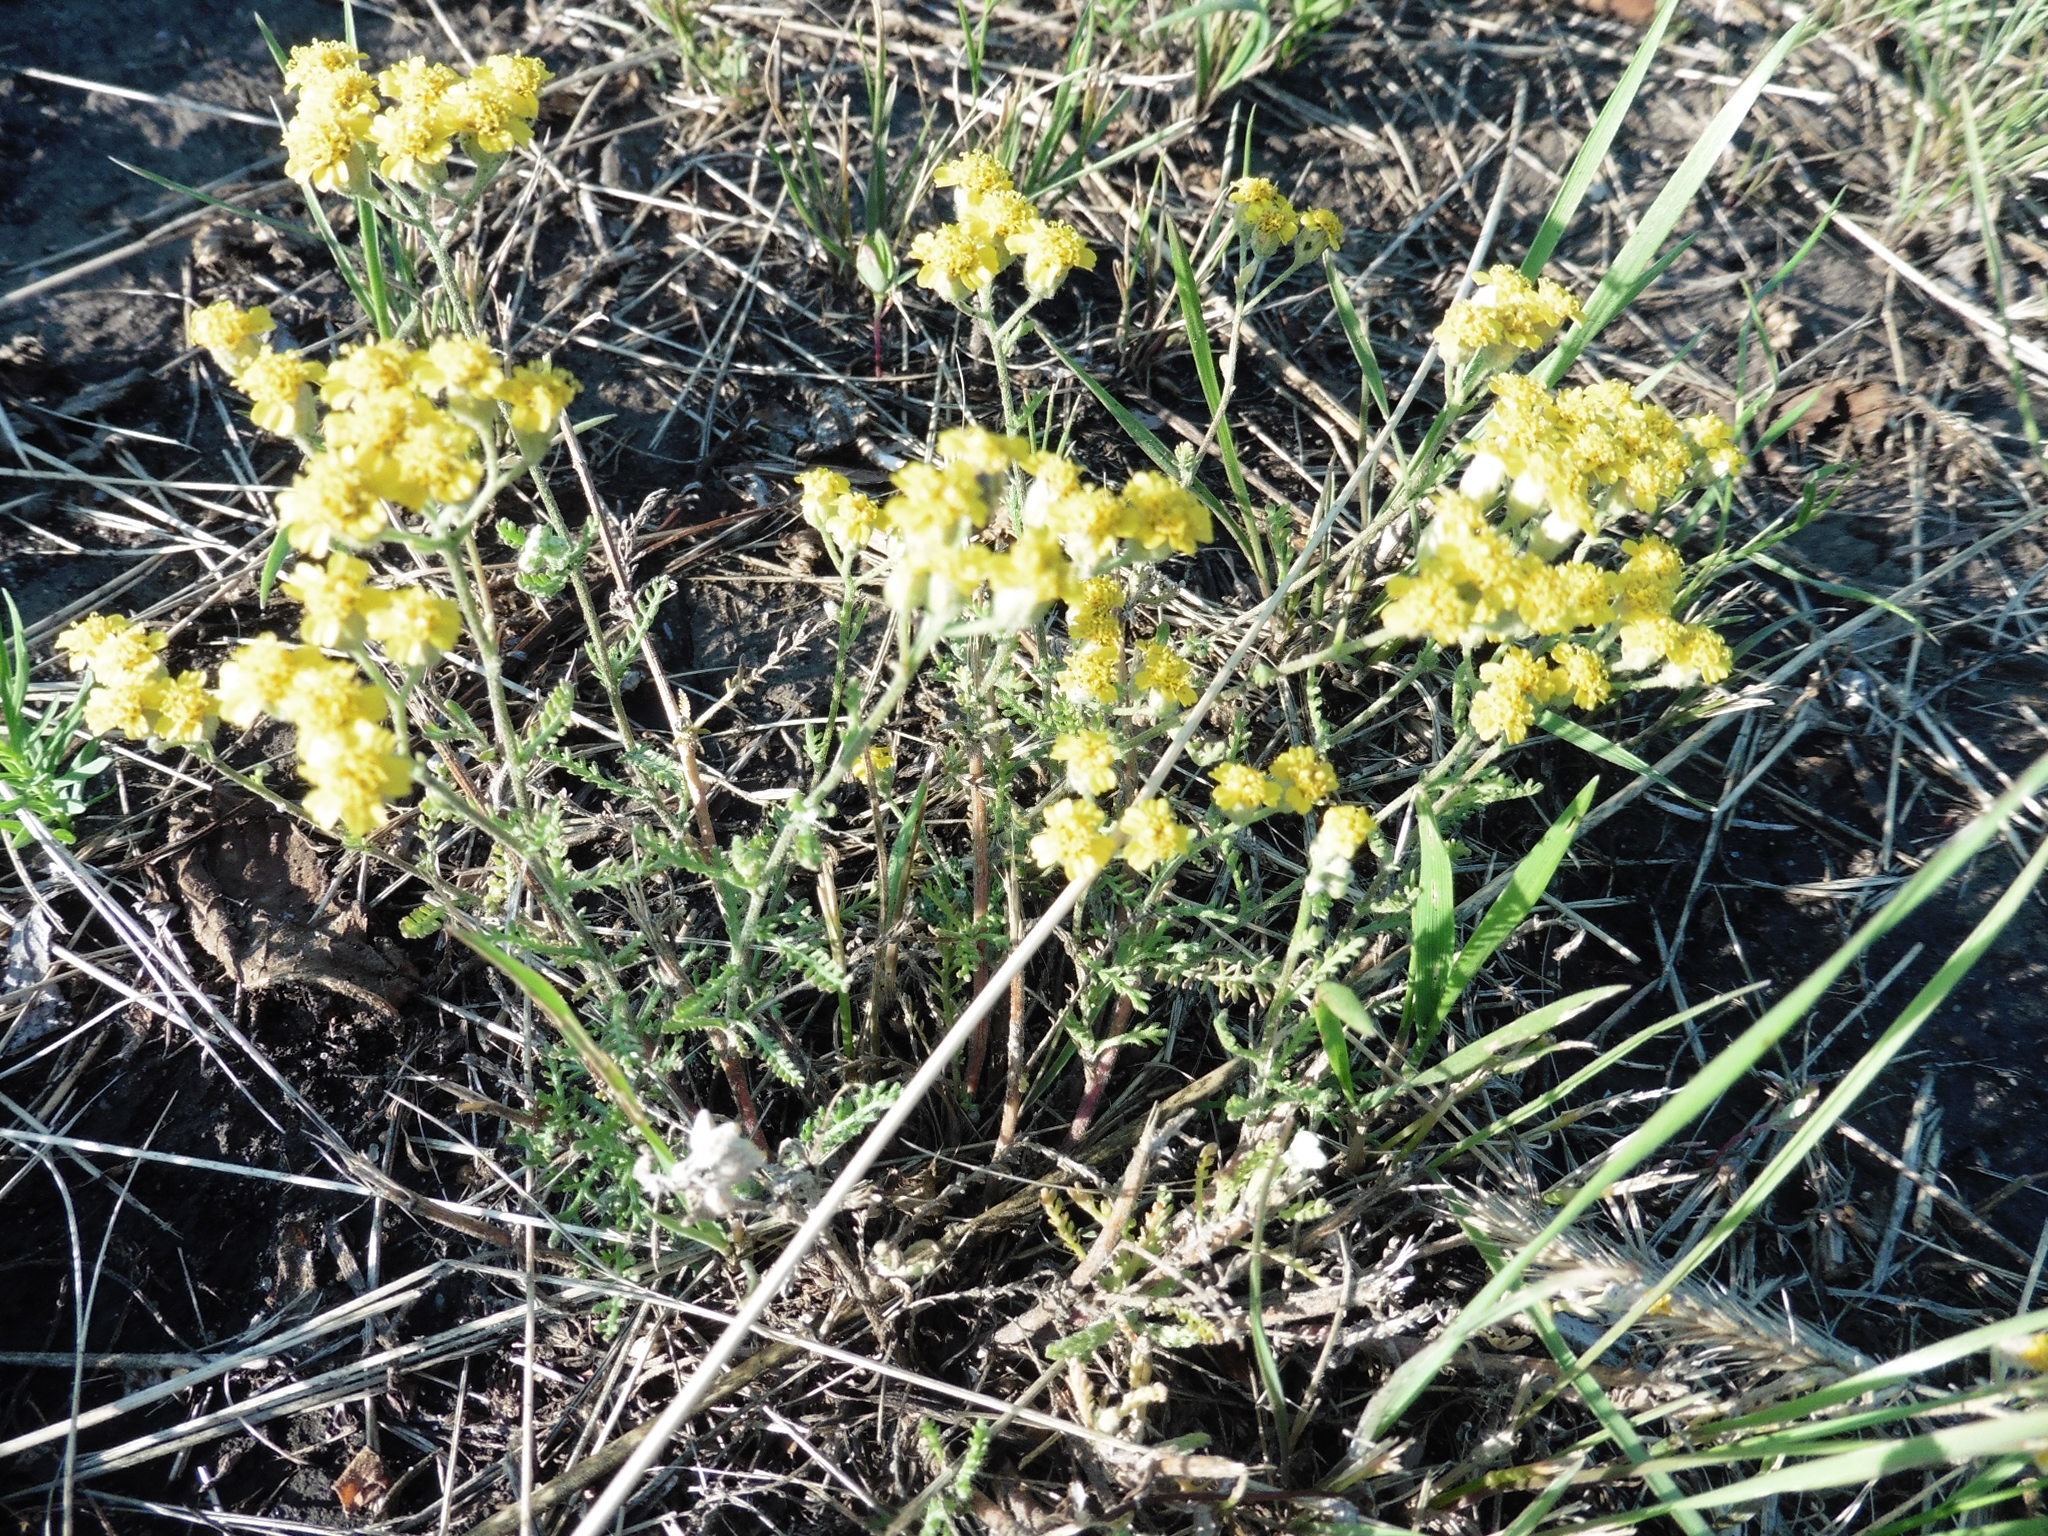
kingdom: Plantae
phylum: Tracheophyta
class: Magnoliopsida
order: Asterales
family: Asteraceae
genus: Achillea
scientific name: Achillea leptophylla
